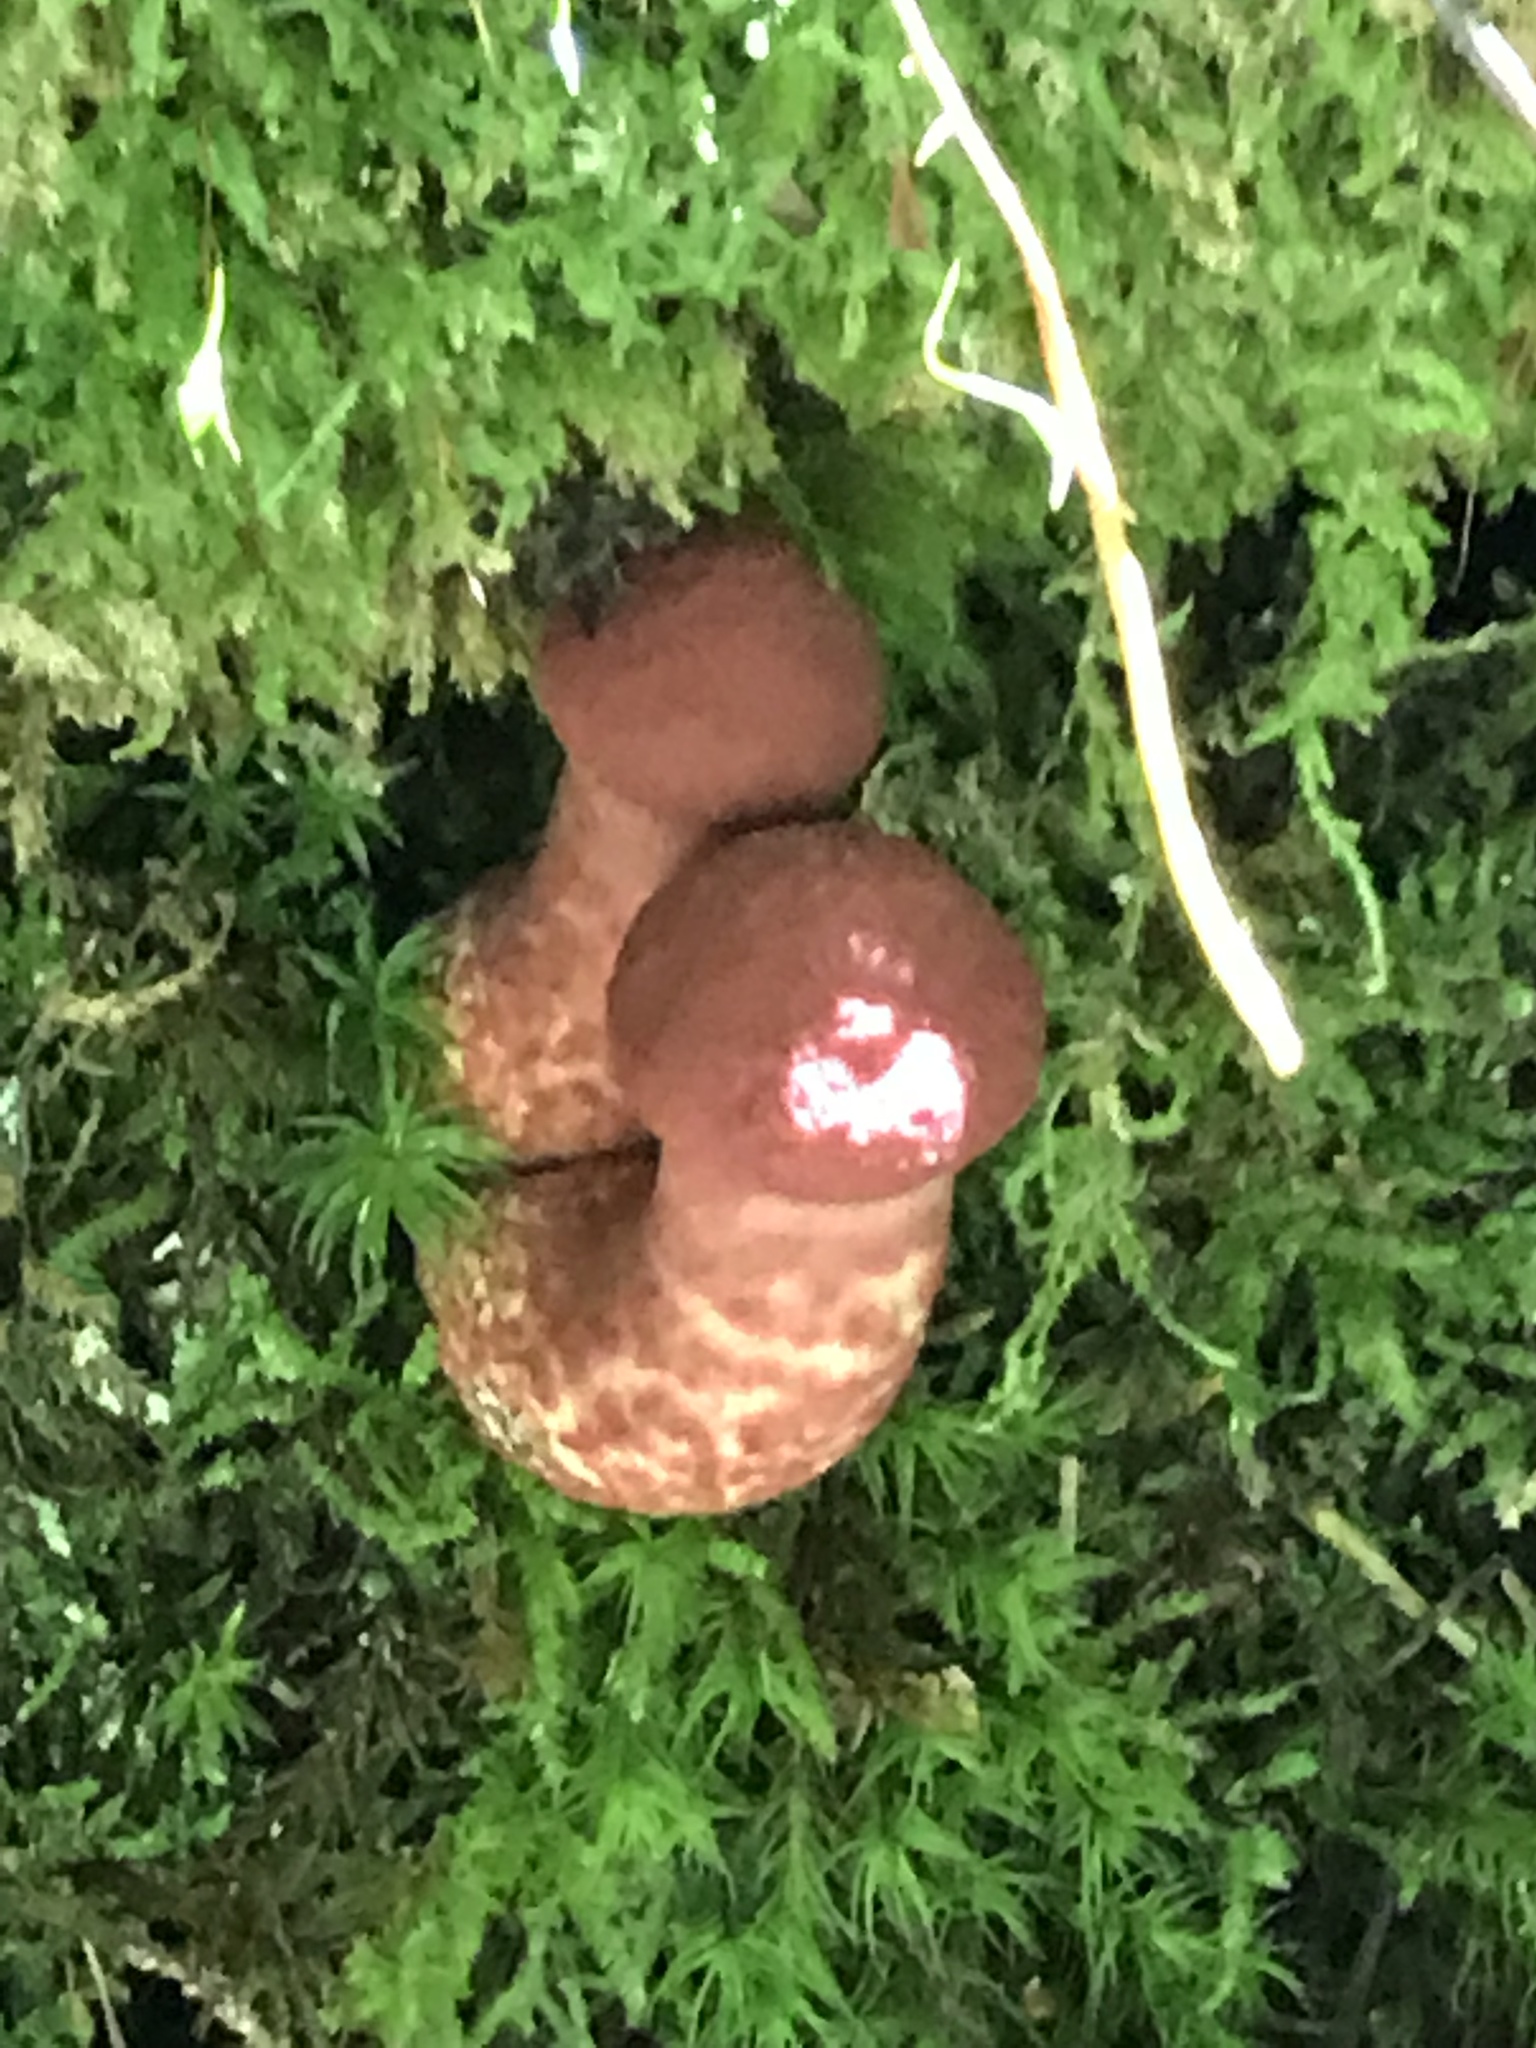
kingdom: Fungi
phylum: Basidiomycota
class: Agaricomycetes
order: Boletales
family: Suillaceae
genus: Suillus
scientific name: Suillus spraguei
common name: Painted suillus
